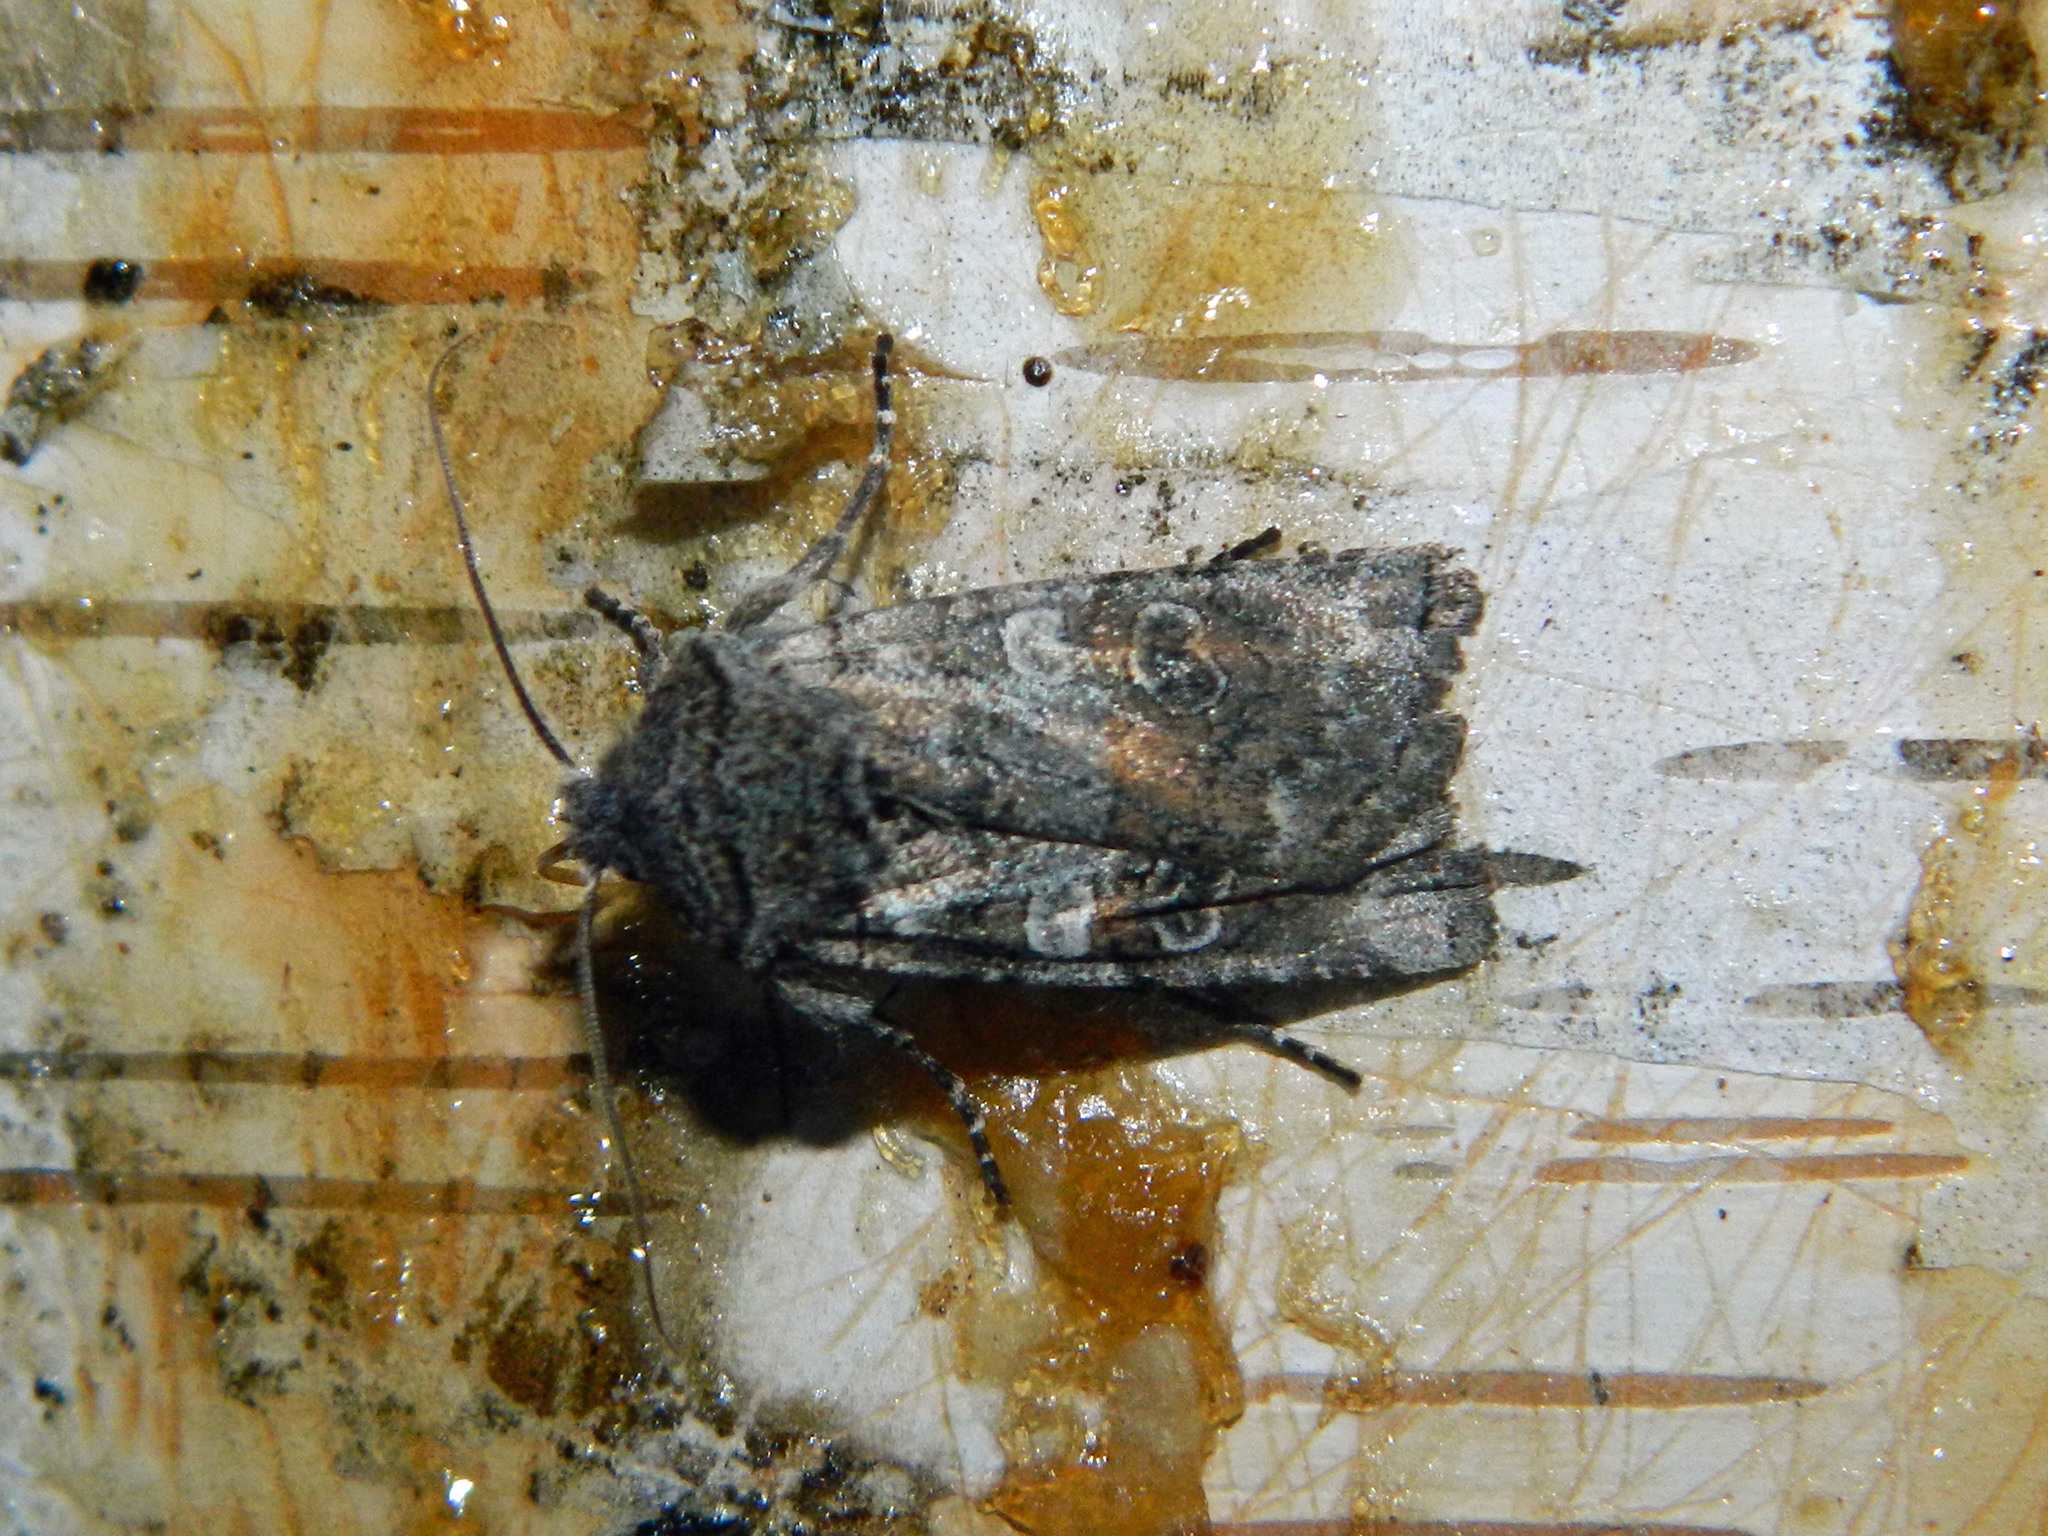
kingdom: Animalia
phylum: Arthropoda
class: Insecta
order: Lepidoptera
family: Noctuidae
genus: Litholomia
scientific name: Litholomia napaea
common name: False pinion moth
